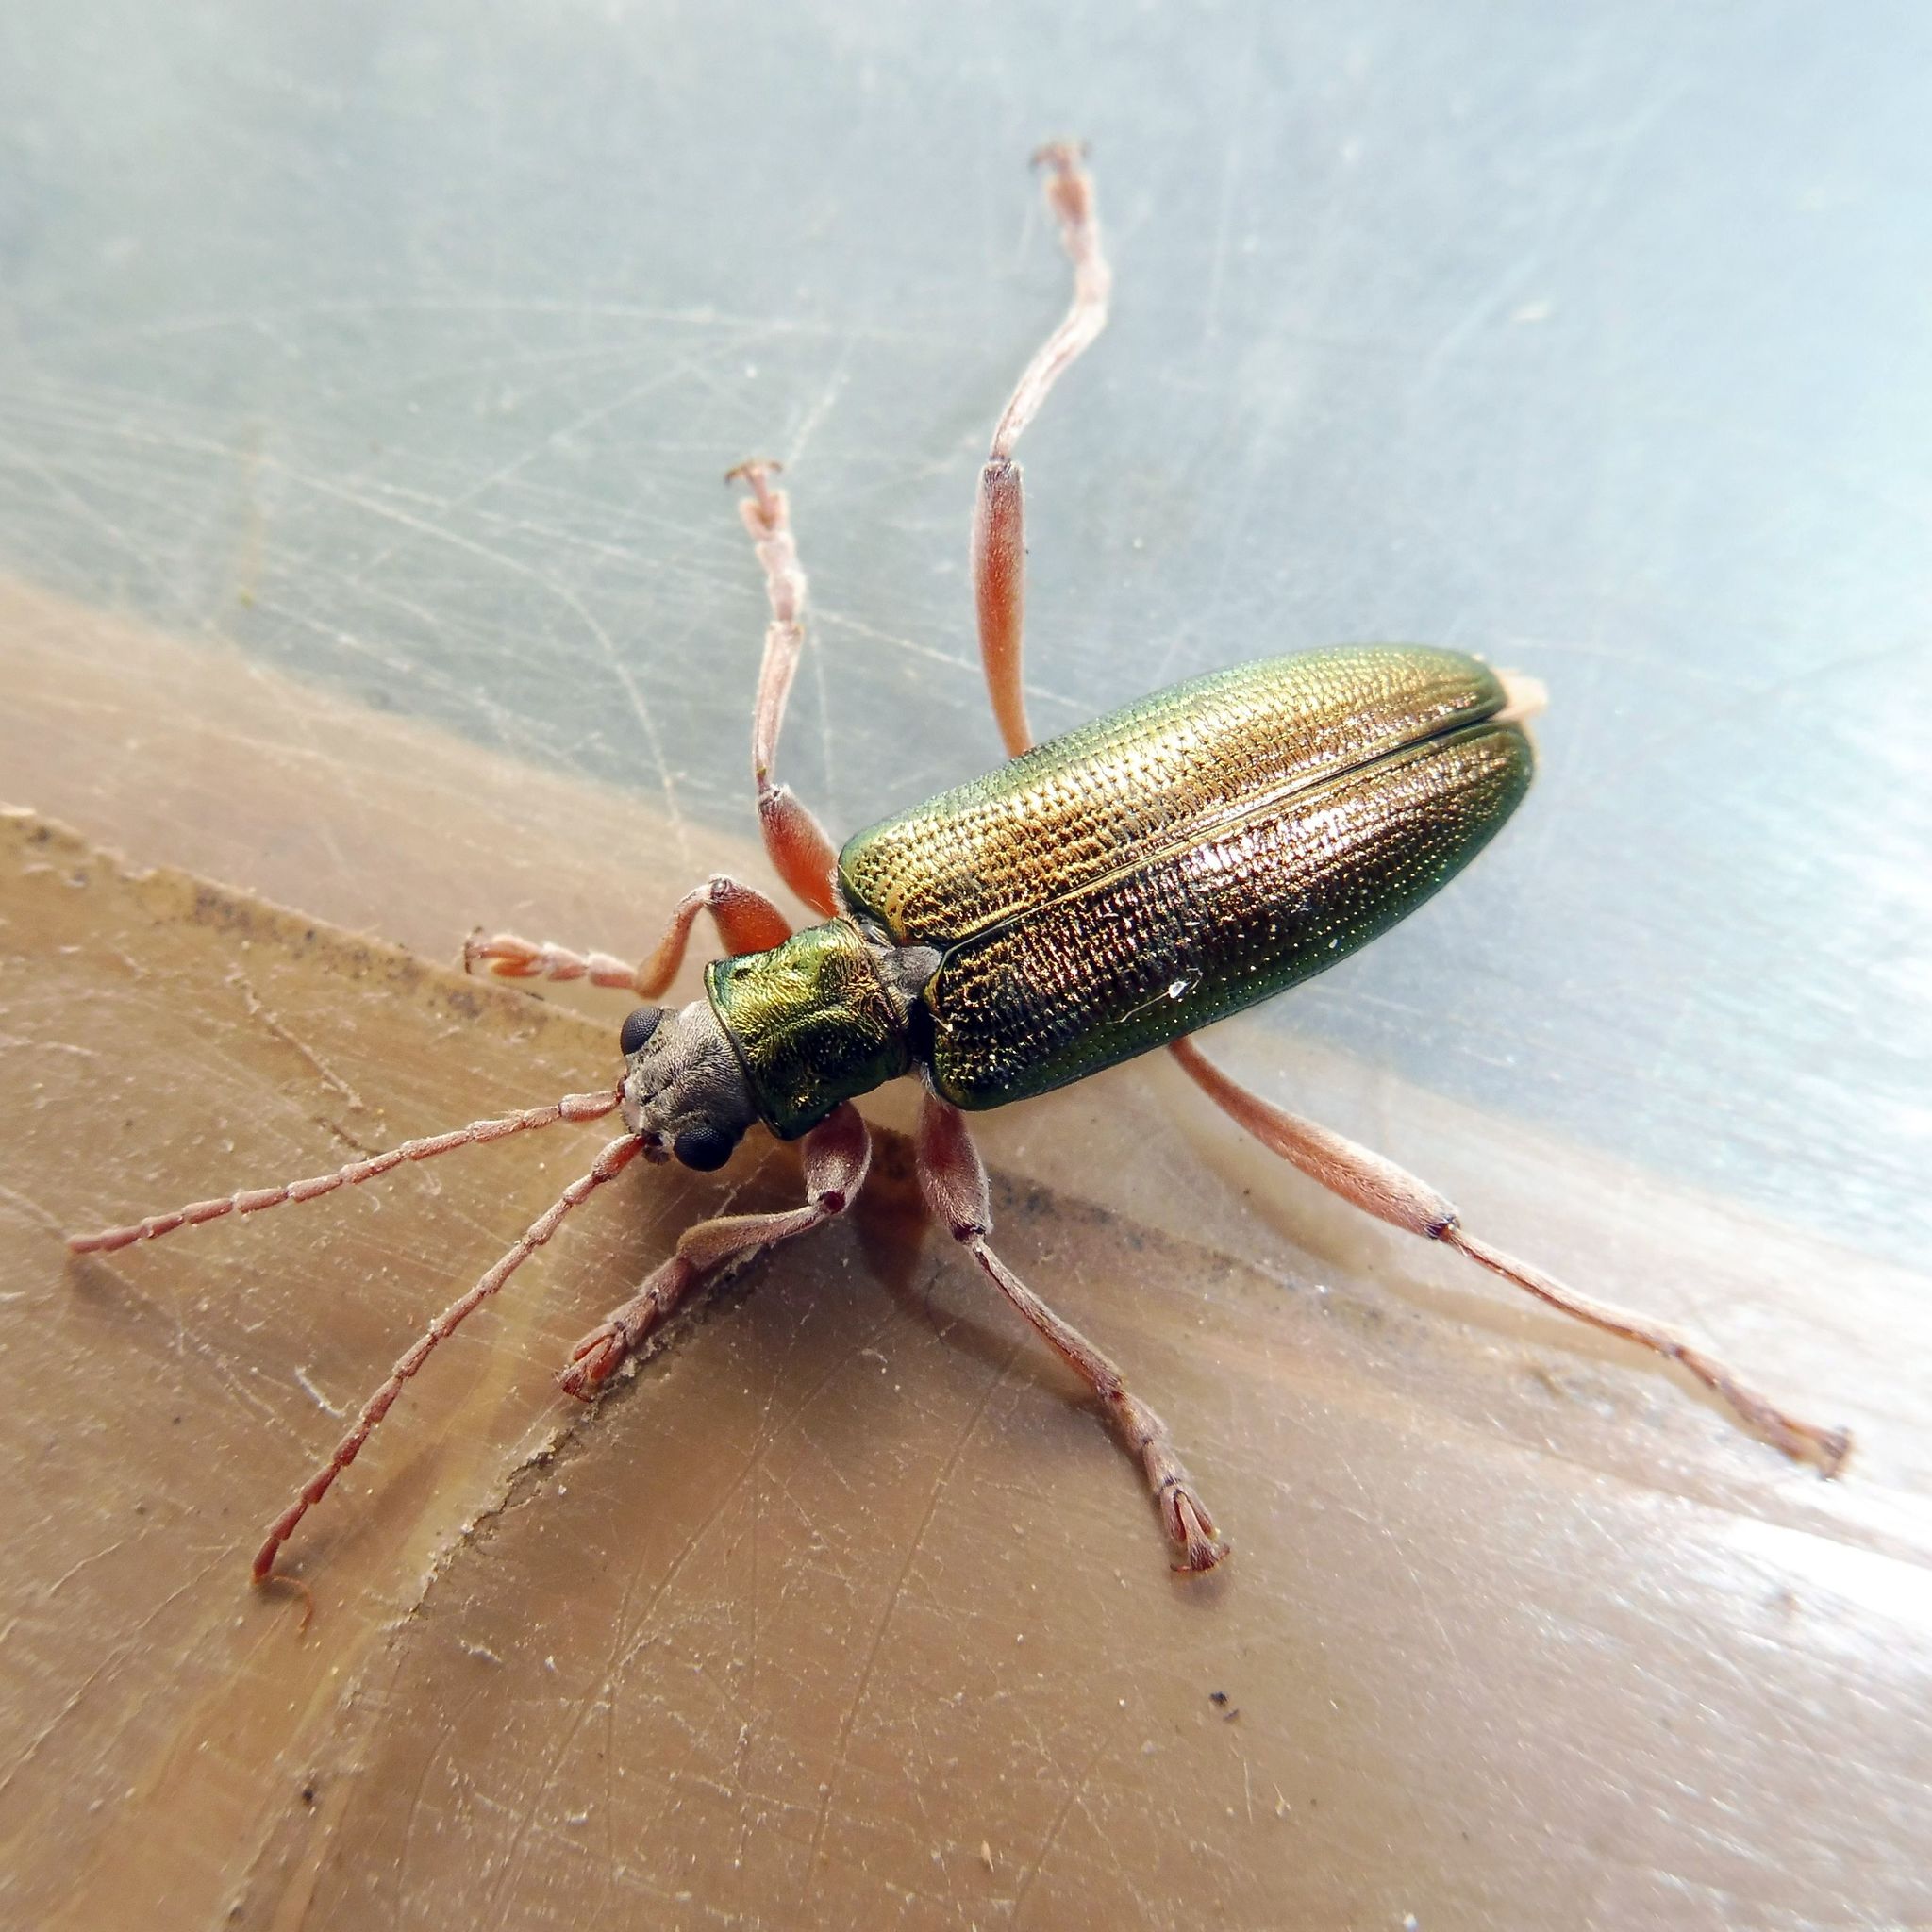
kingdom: Animalia
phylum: Arthropoda
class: Insecta
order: Coleoptera
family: Chrysomelidae
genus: Donacia
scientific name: Donacia clavipes
